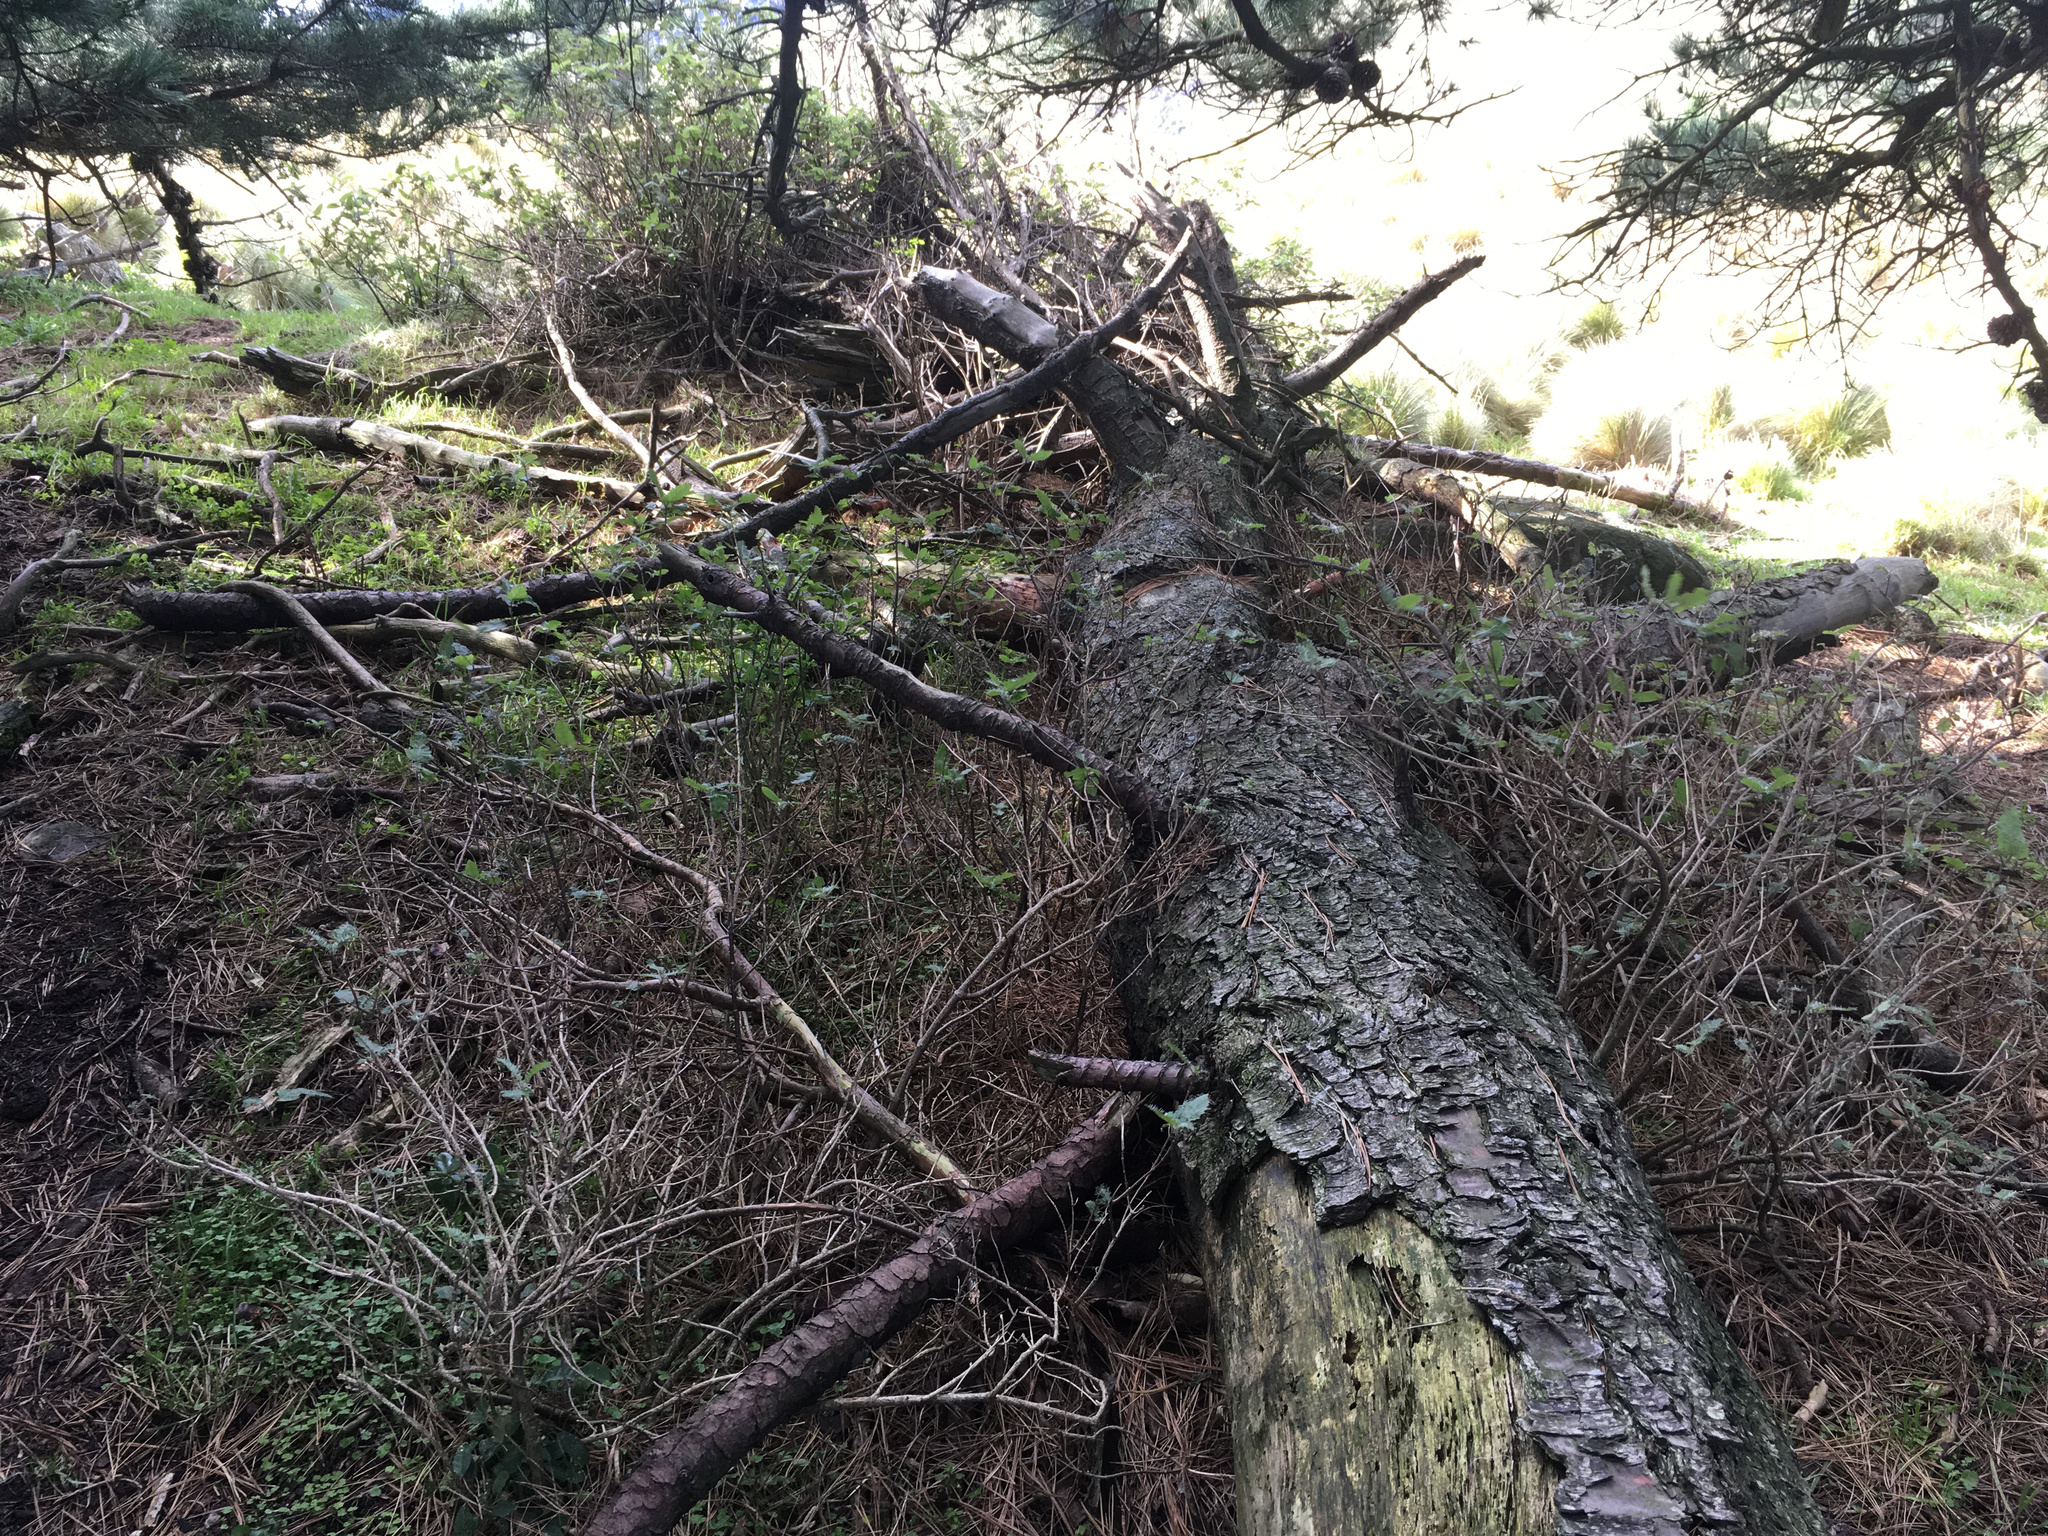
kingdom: Plantae
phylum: Tracheophyta
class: Magnoliopsida
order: Rosales
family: Urticaceae
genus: Urtica
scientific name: Urtica ferox
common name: Tree nettle
